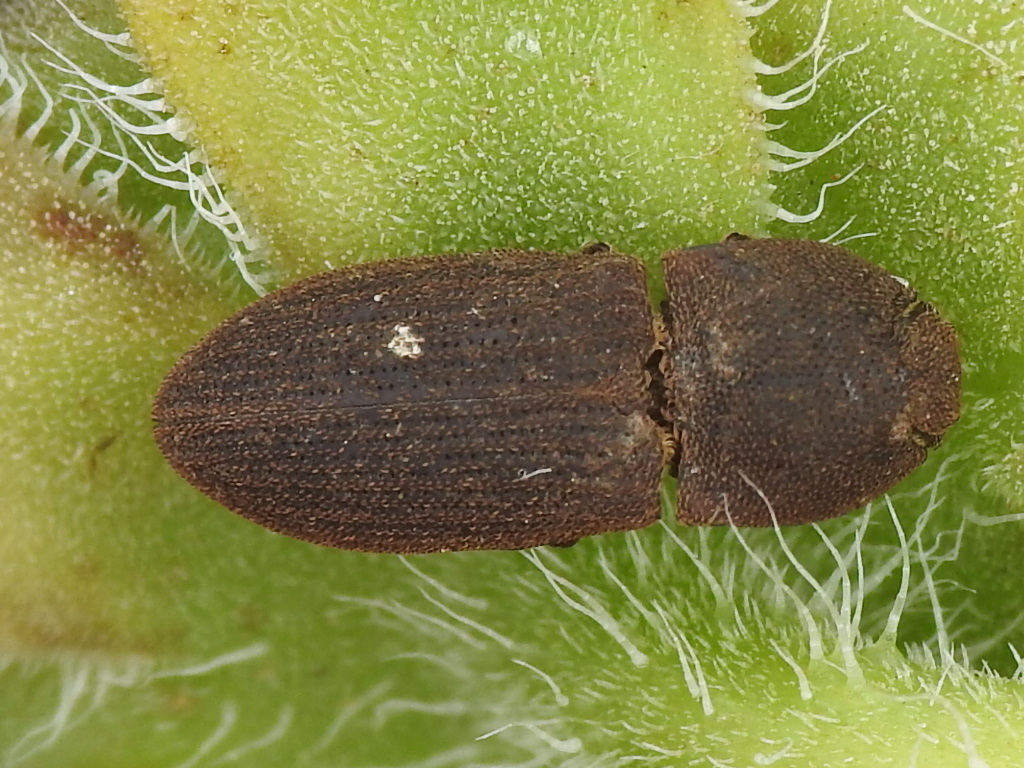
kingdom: Animalia
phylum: Arthropoda
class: Insecta
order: Coleoptera
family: Elateridae
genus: Agrypnus
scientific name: Agrypnus rectangularis
